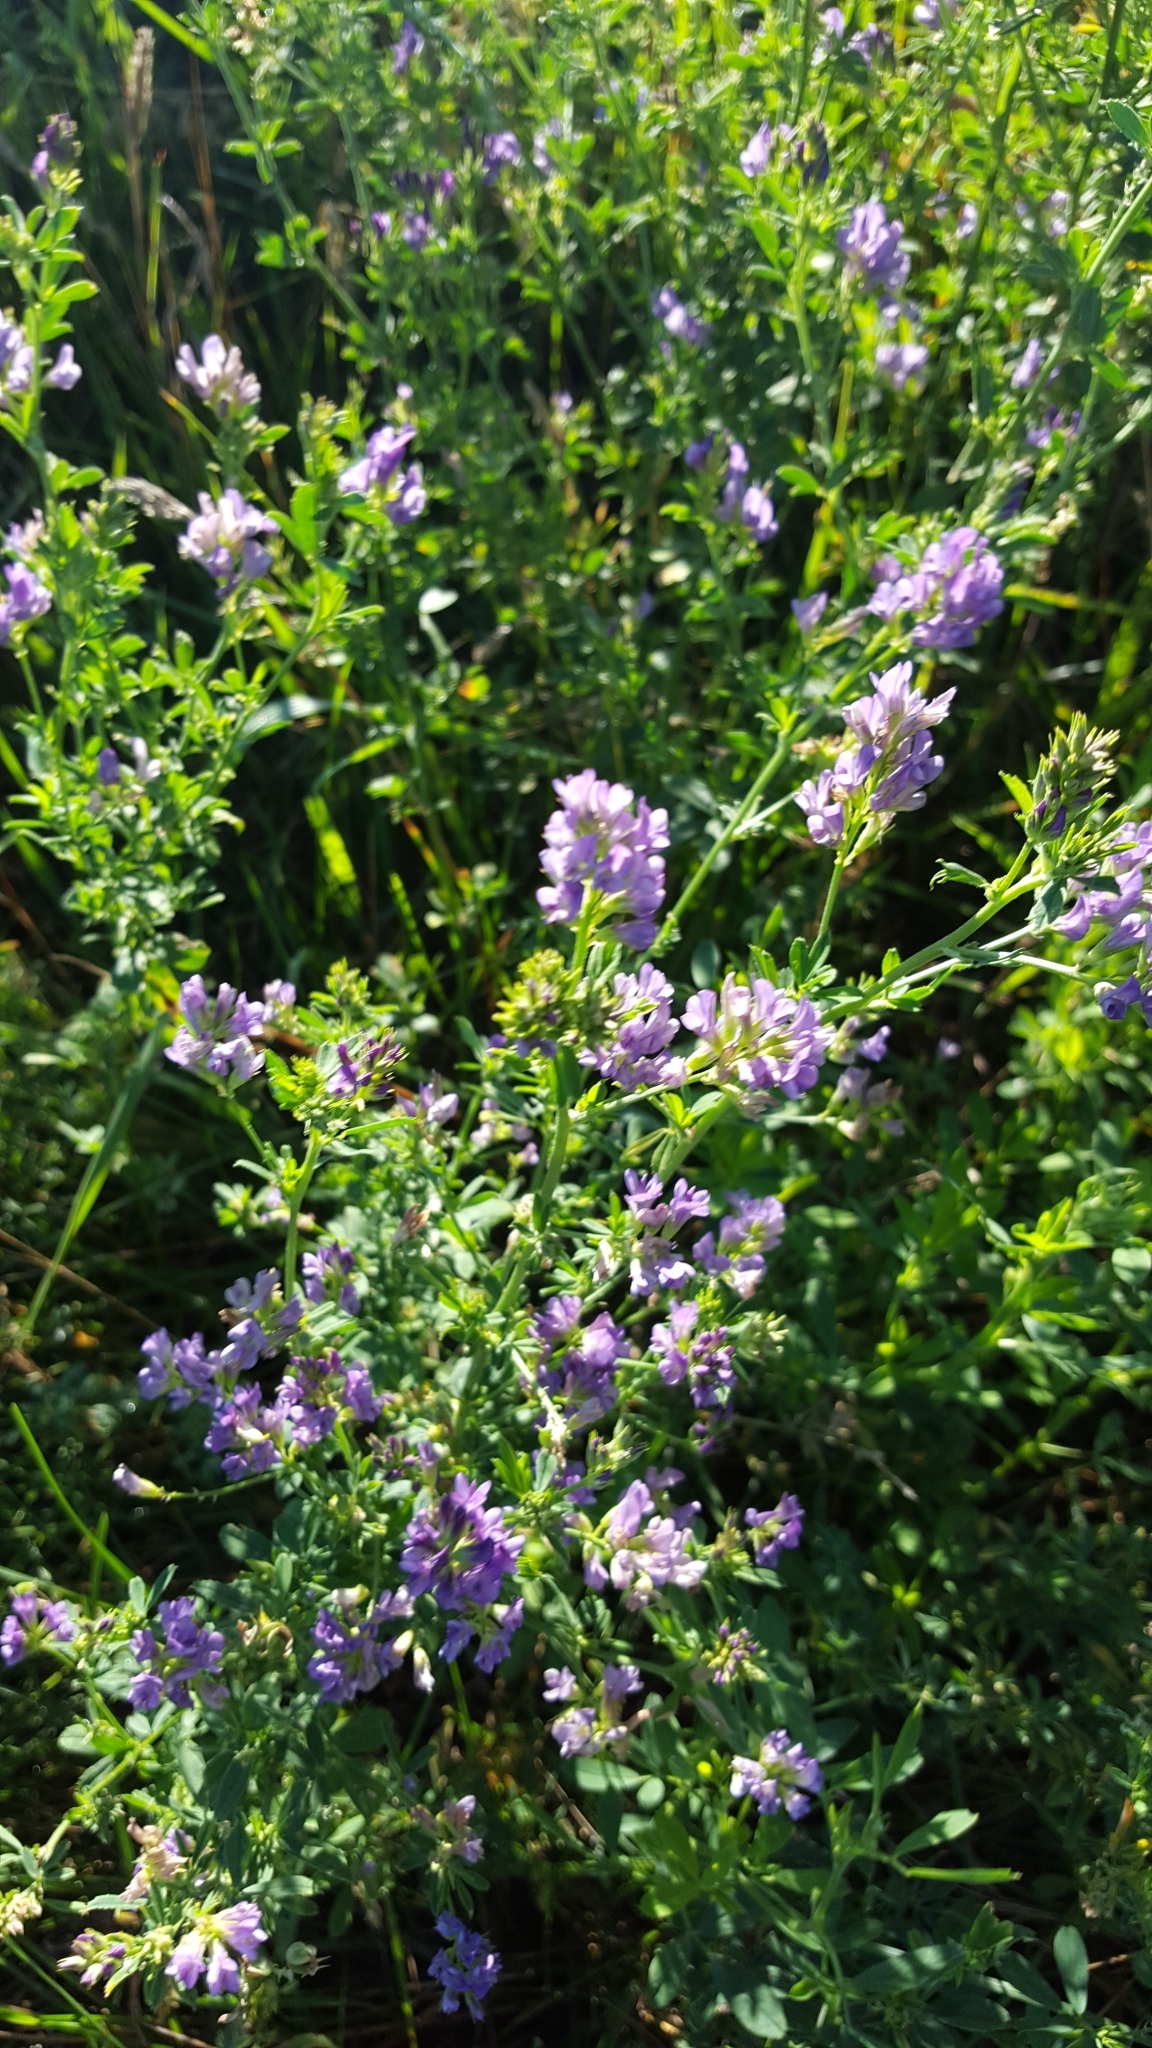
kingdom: Plantae
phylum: Tracheophyta
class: Magnoliopsida
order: Fabales
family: Fabaceae
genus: Medicago
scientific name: Medicago sativa
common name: Alfalfa
